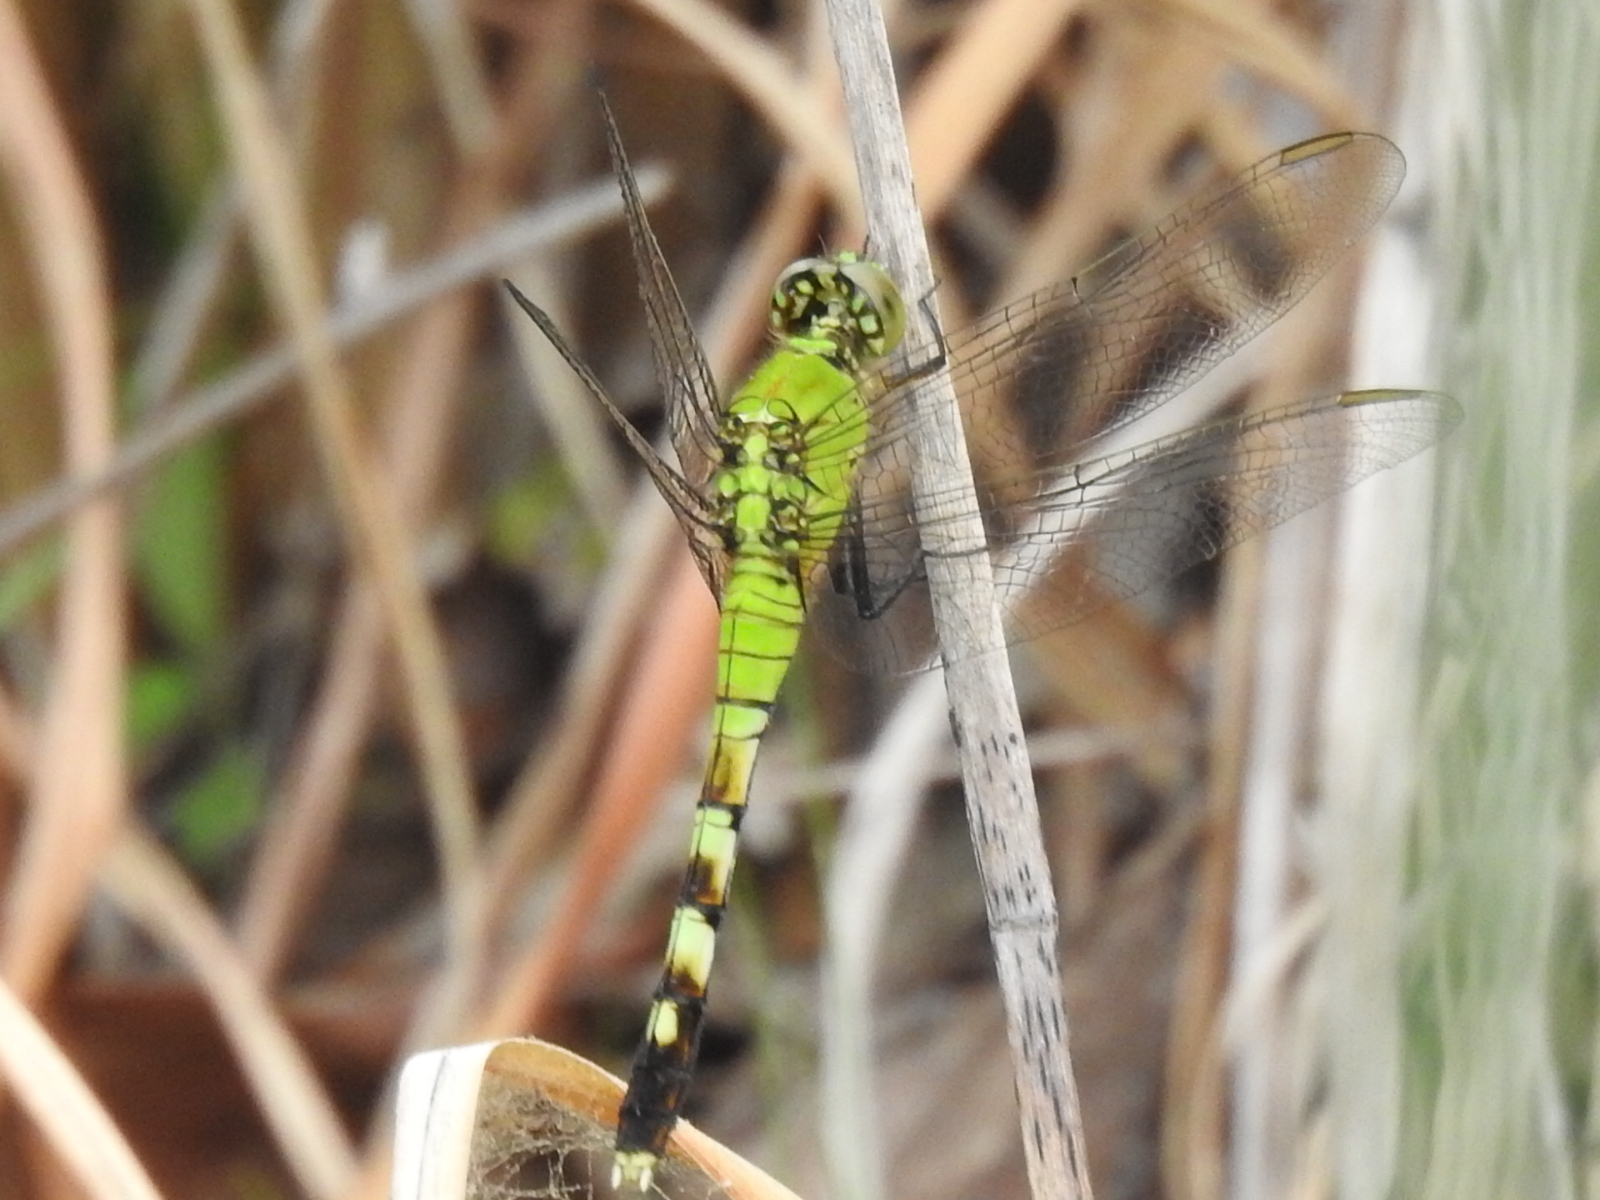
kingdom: Animalia
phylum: Arthropoda
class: Insecta
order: Odonata
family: Libellulidae
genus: Erythemis
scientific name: Erythemis simplicicollis
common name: Eastern pondhawk
